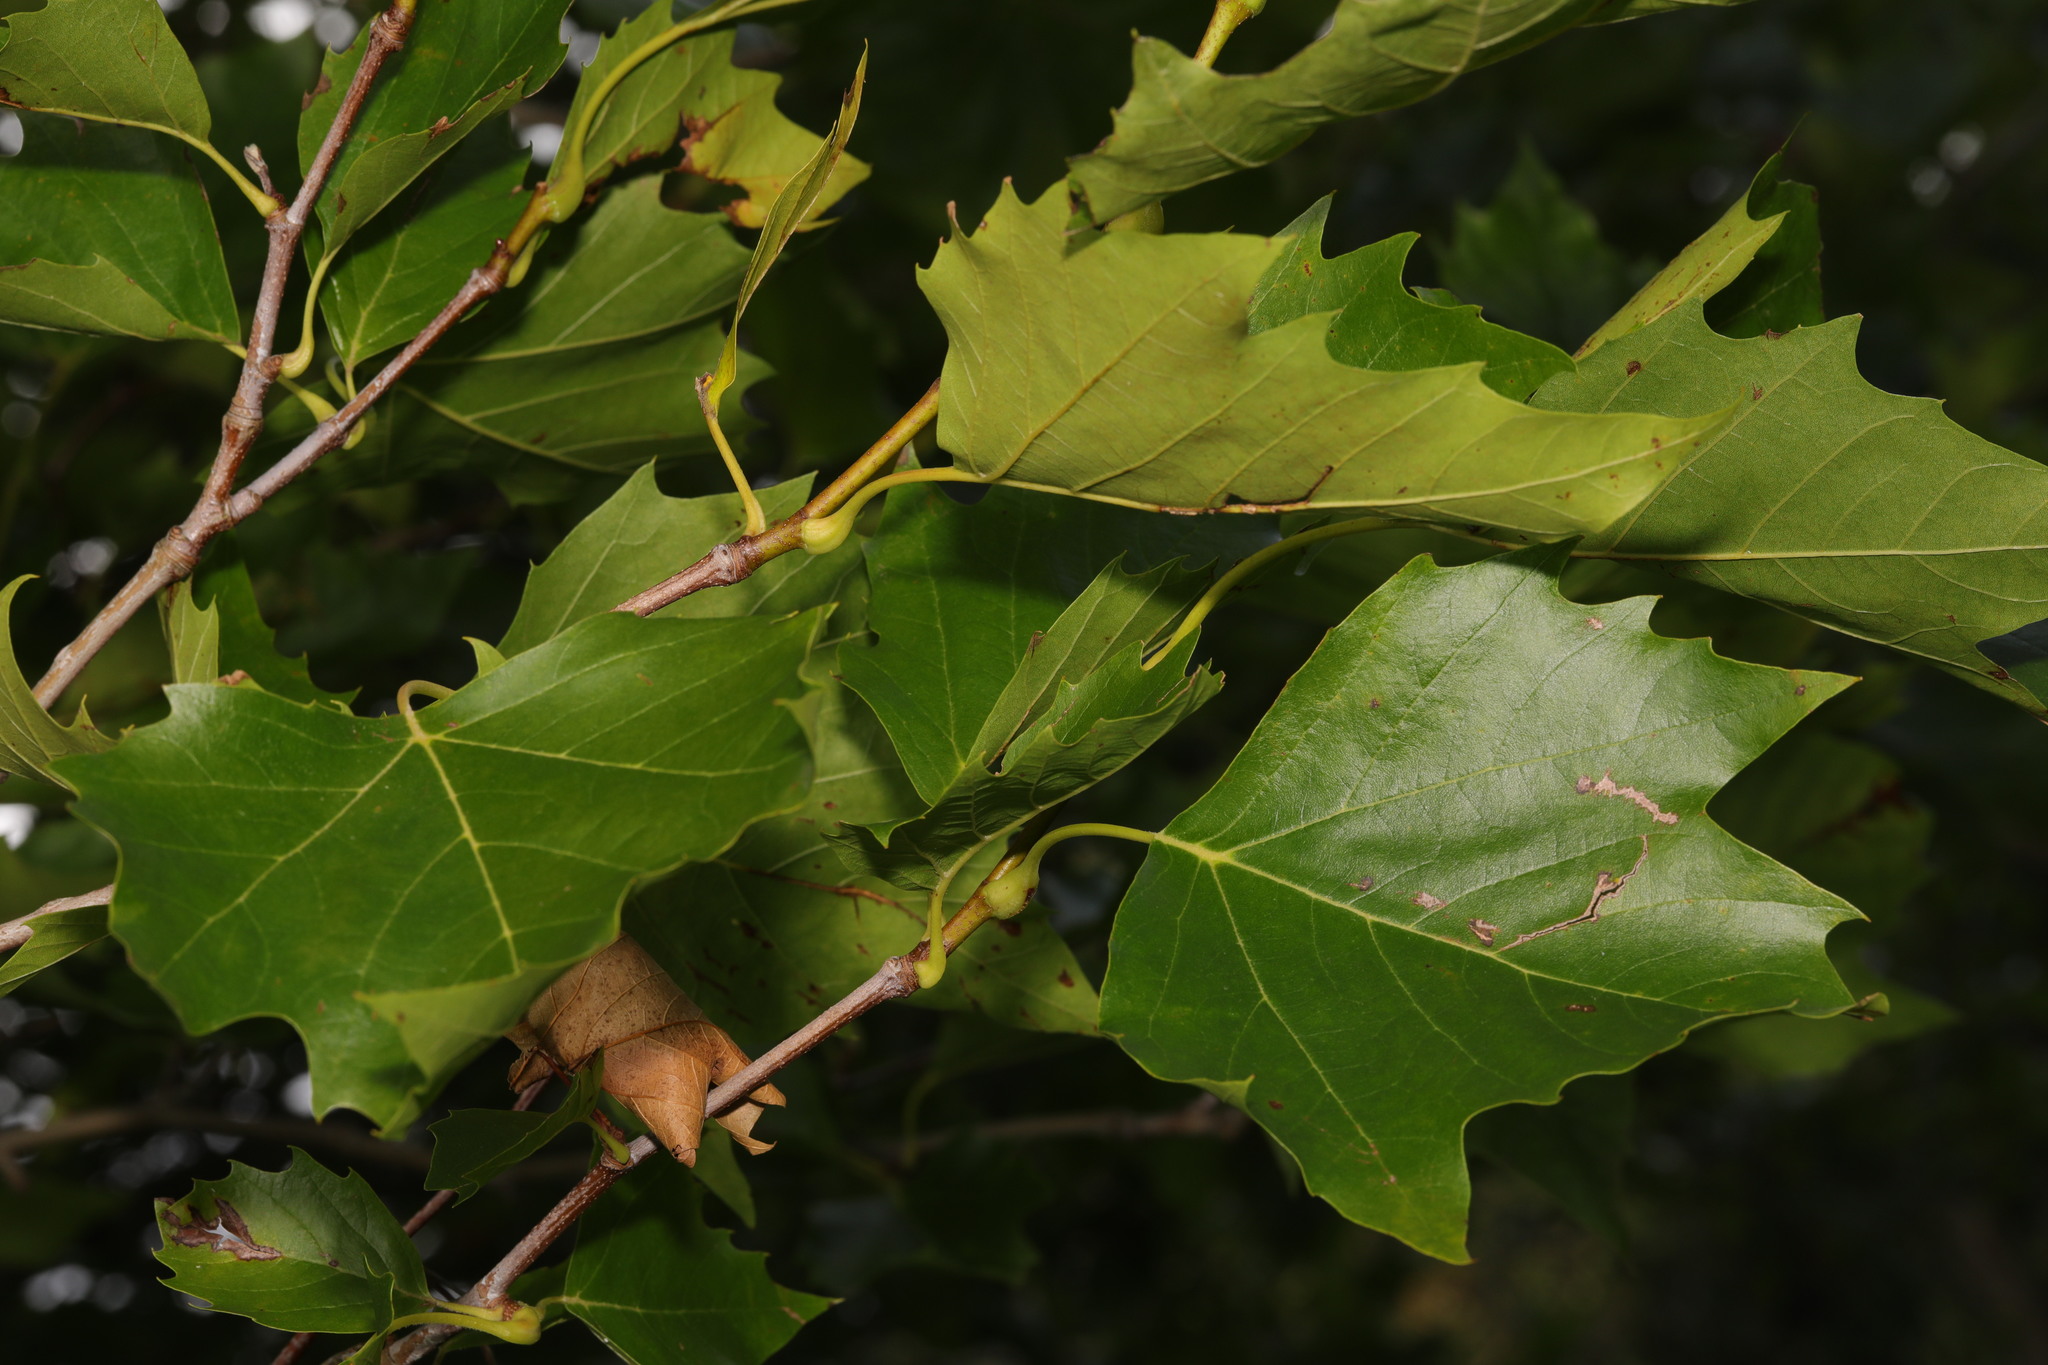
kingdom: Plantae
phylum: Tracheophyta
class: Magnoliopsida
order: Proteales
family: Platanaceae
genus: Platanus
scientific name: Platanus hispanica
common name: London plane
